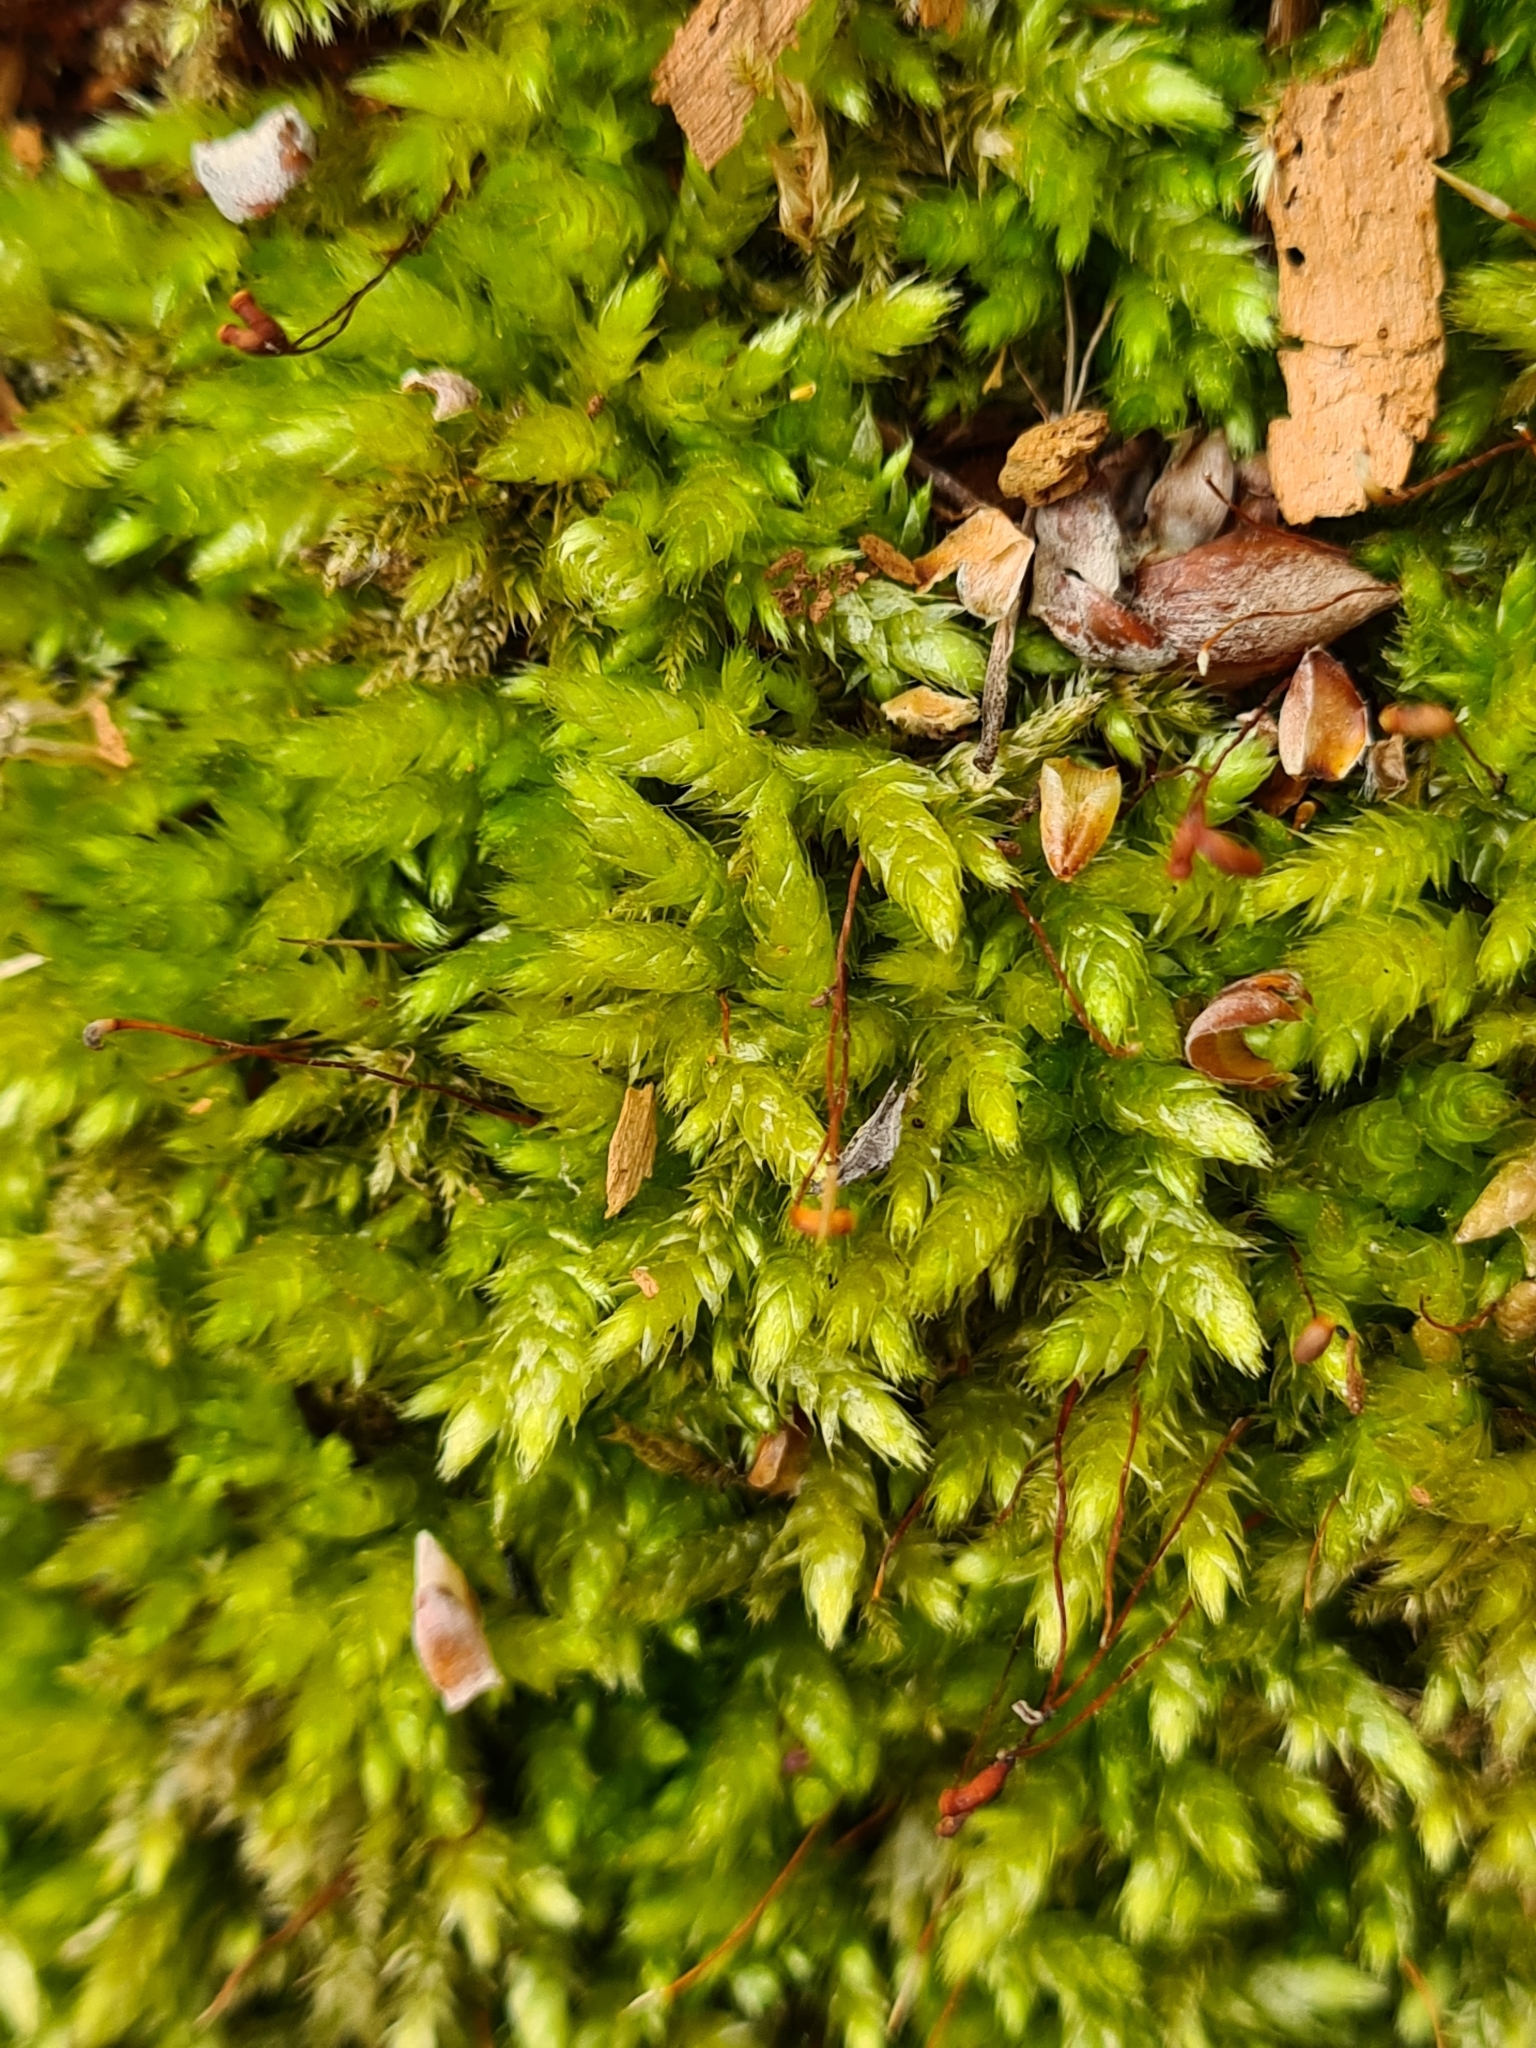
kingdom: Plantae
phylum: Bryophyta
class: Bryopsida
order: Hypnales
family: Brachytheciaceae
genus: Brachythecium
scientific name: Brachythecium rutabulum
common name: Rough-stalked feather-moss
